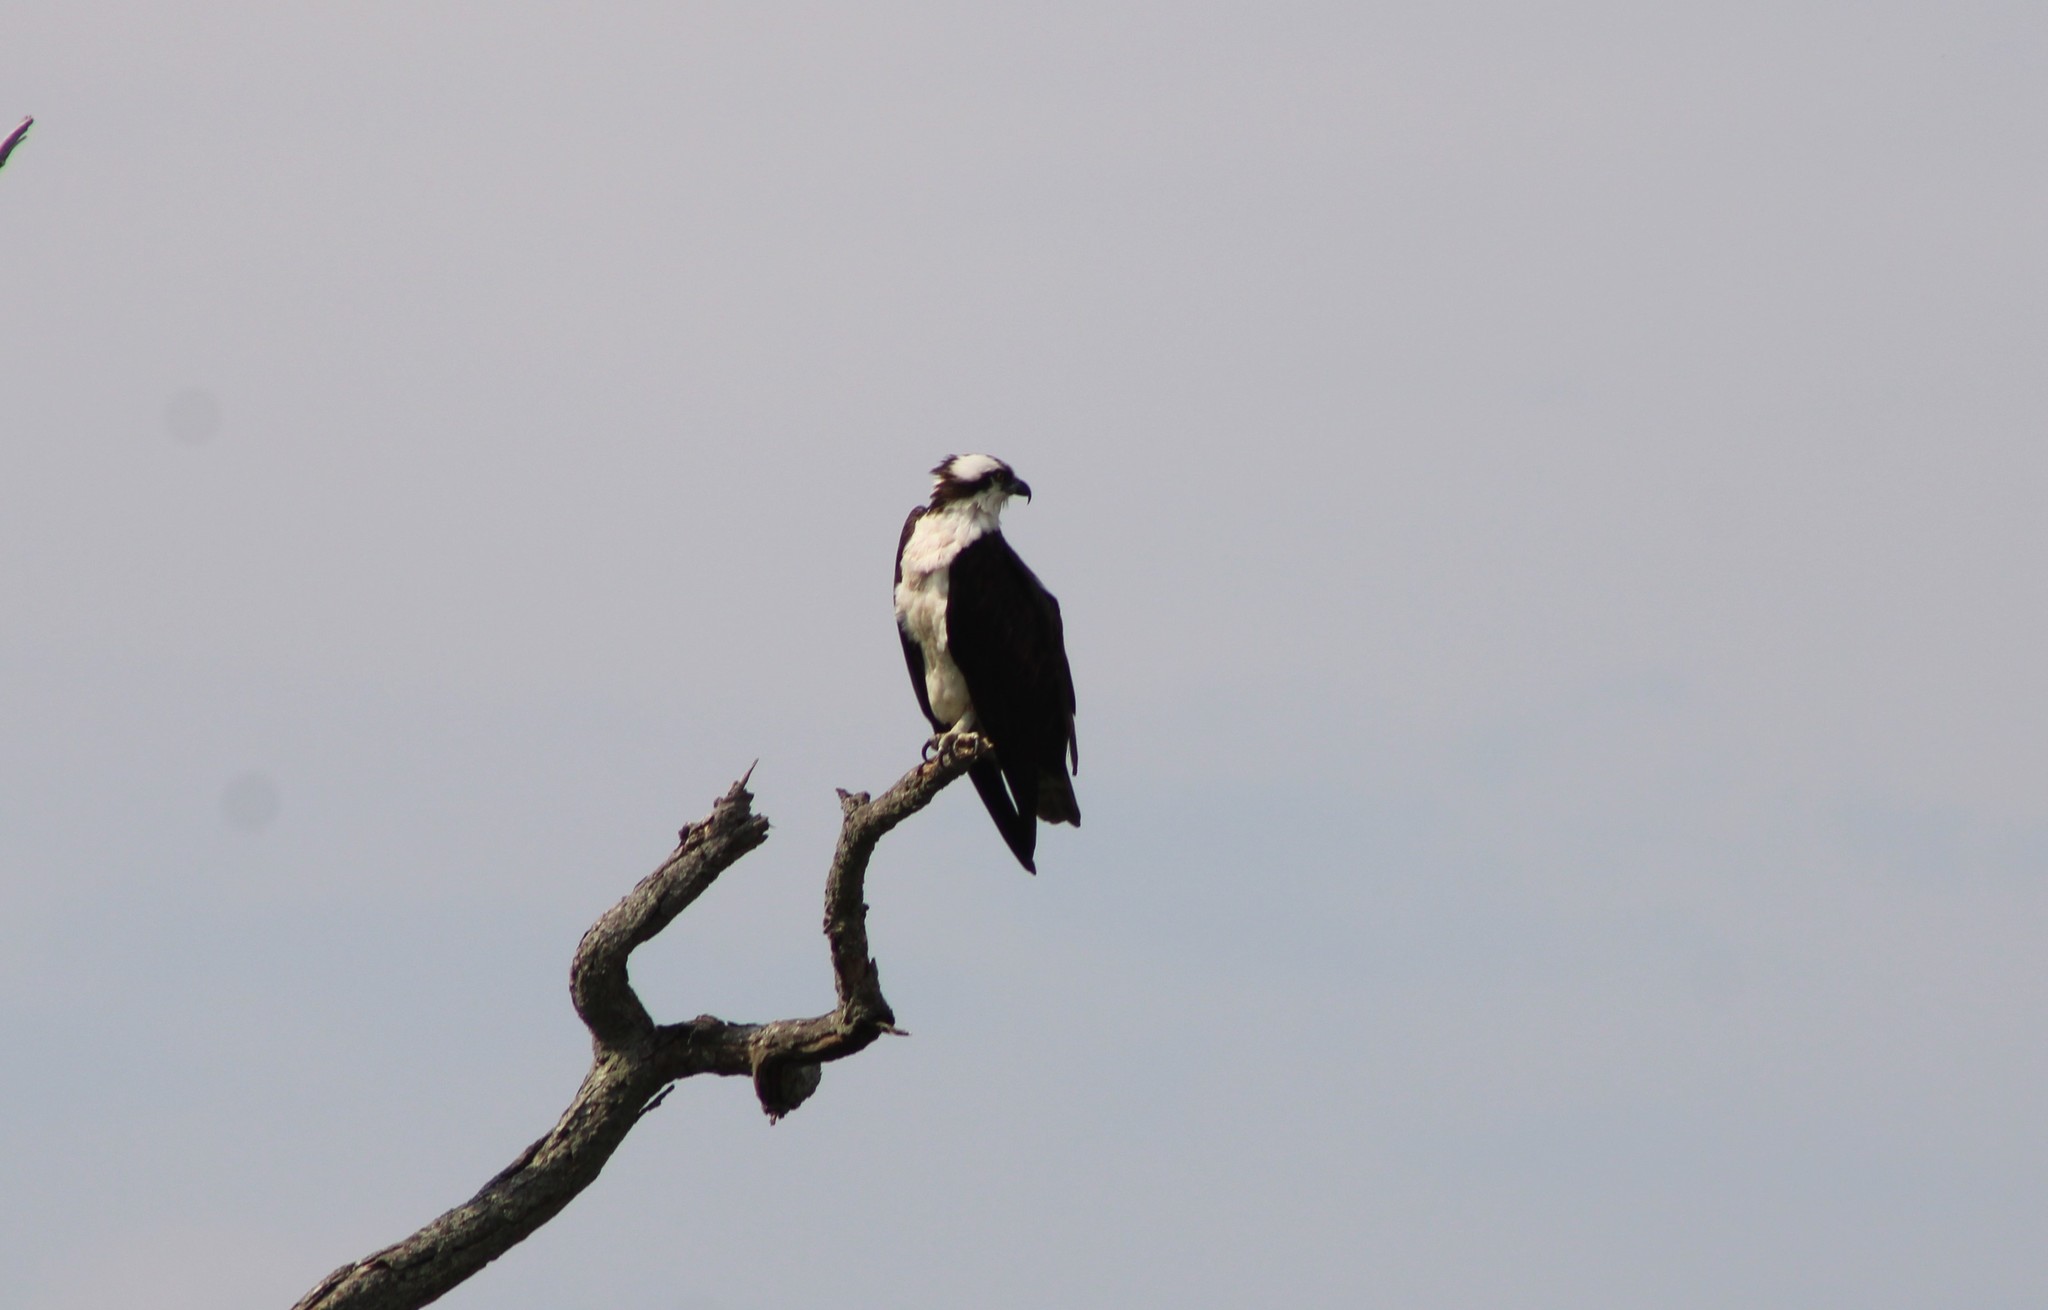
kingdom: Animalia
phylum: Chordata
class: Aves
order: Accipitriformes
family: Pandionidae
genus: Pandion
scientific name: Pandion haliaetus
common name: Osprey
